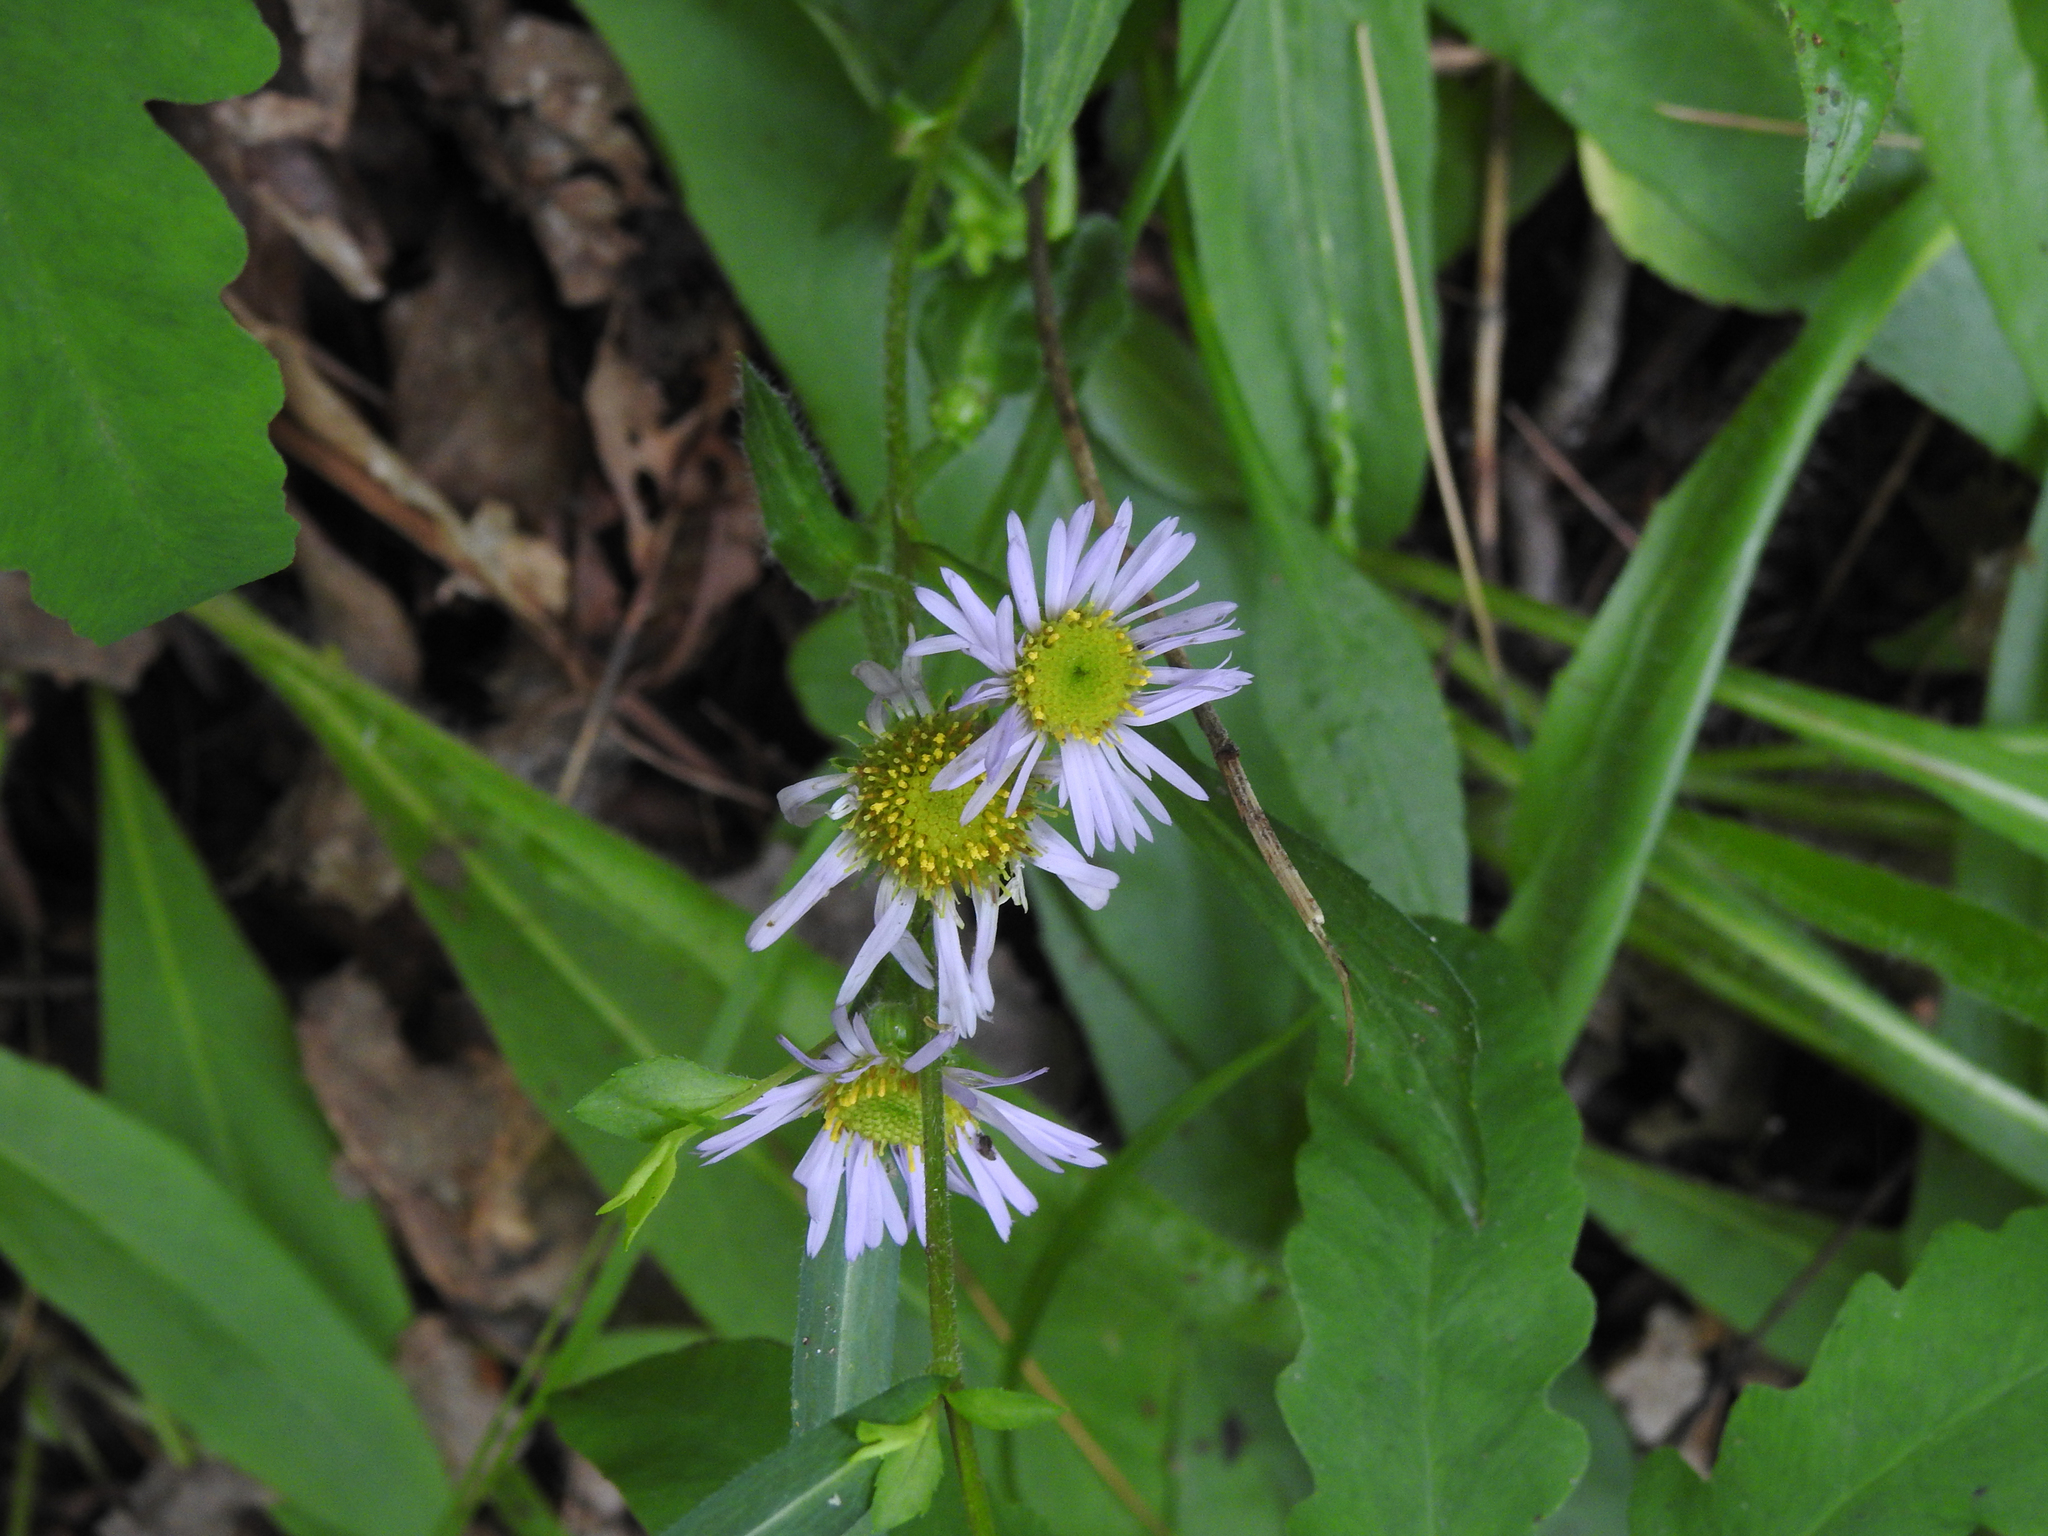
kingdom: Plantae
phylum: Tracheophyta
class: Magnoliopsida
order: Asterales
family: Asteraceae
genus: Erigeron
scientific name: Erigeron pulchellus
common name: Hairy fleabane
